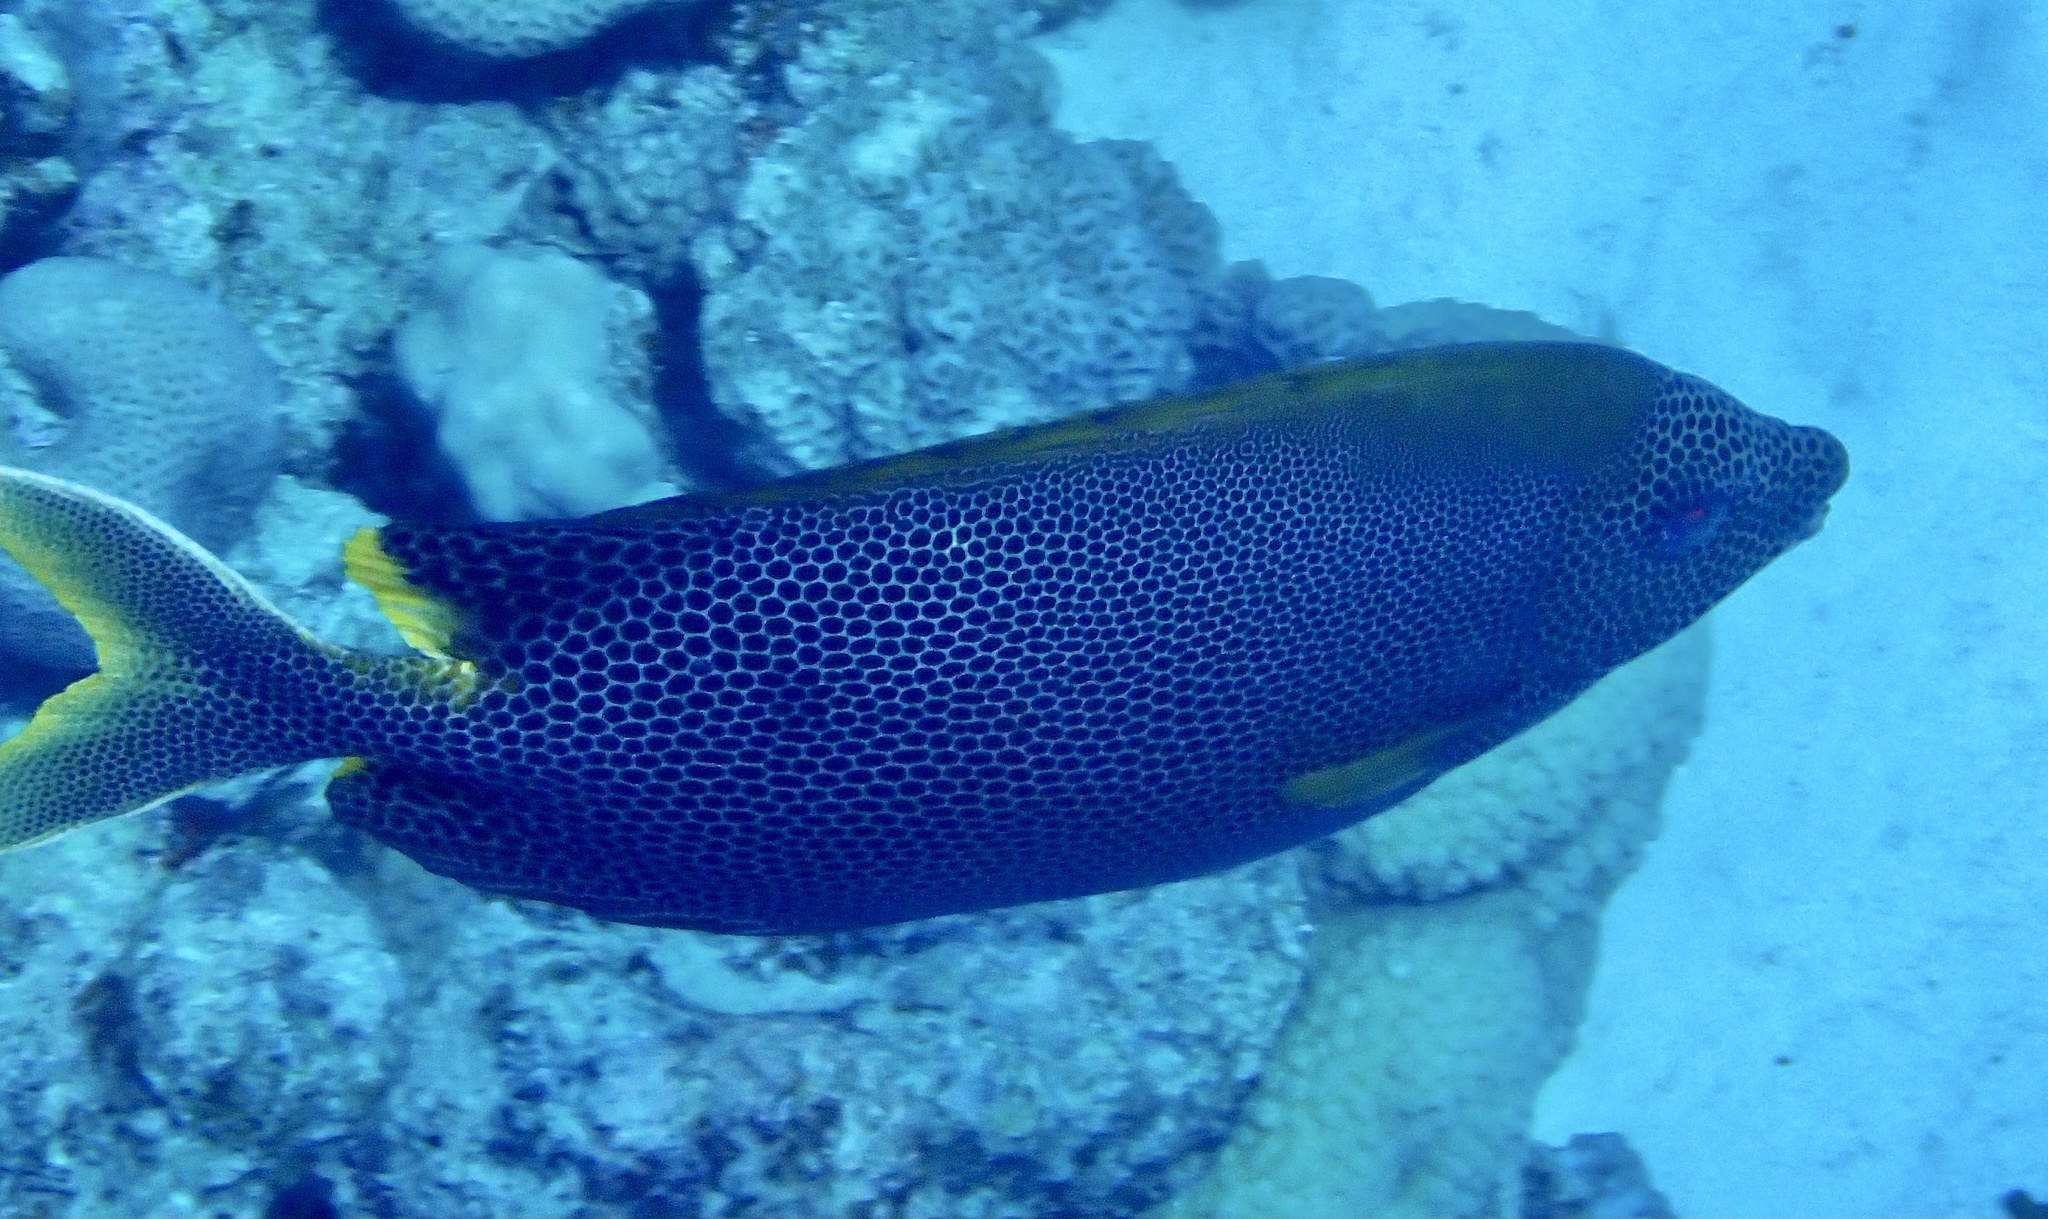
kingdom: Animalia
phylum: Chordata
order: Perciformes
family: Siganidae
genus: Siganus
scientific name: Siganus stellatus
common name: Brown-spotted spinefoot
